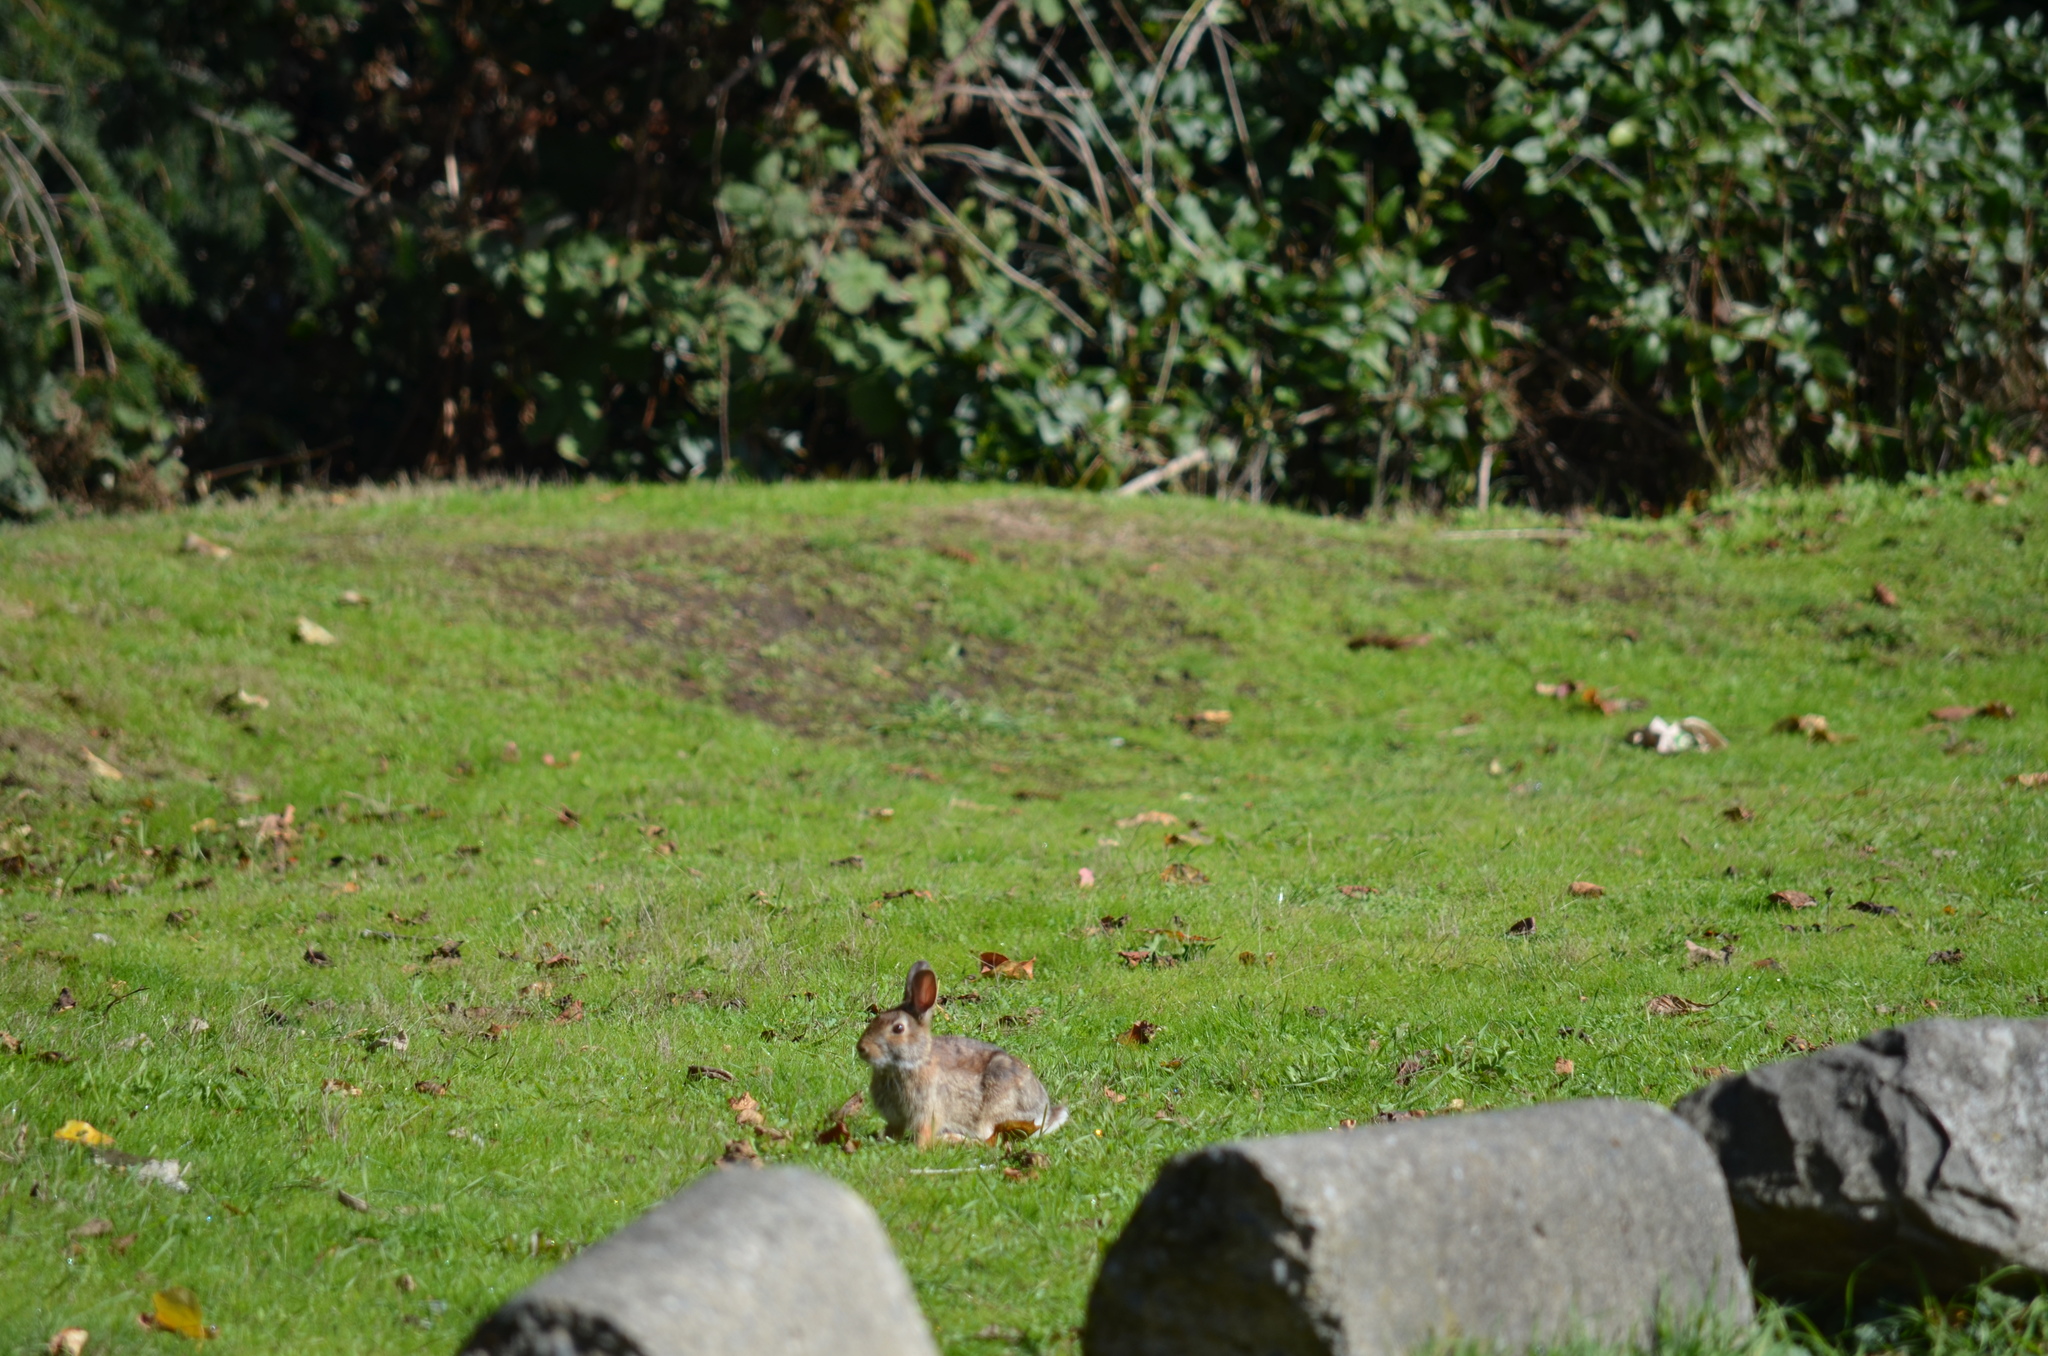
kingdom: Animalia
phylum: Chordata
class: Mammalia
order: Lagomorpha
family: Leporidae
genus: Sylvilagus
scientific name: Sylvilagus floridanus
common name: Eastern cottontail
